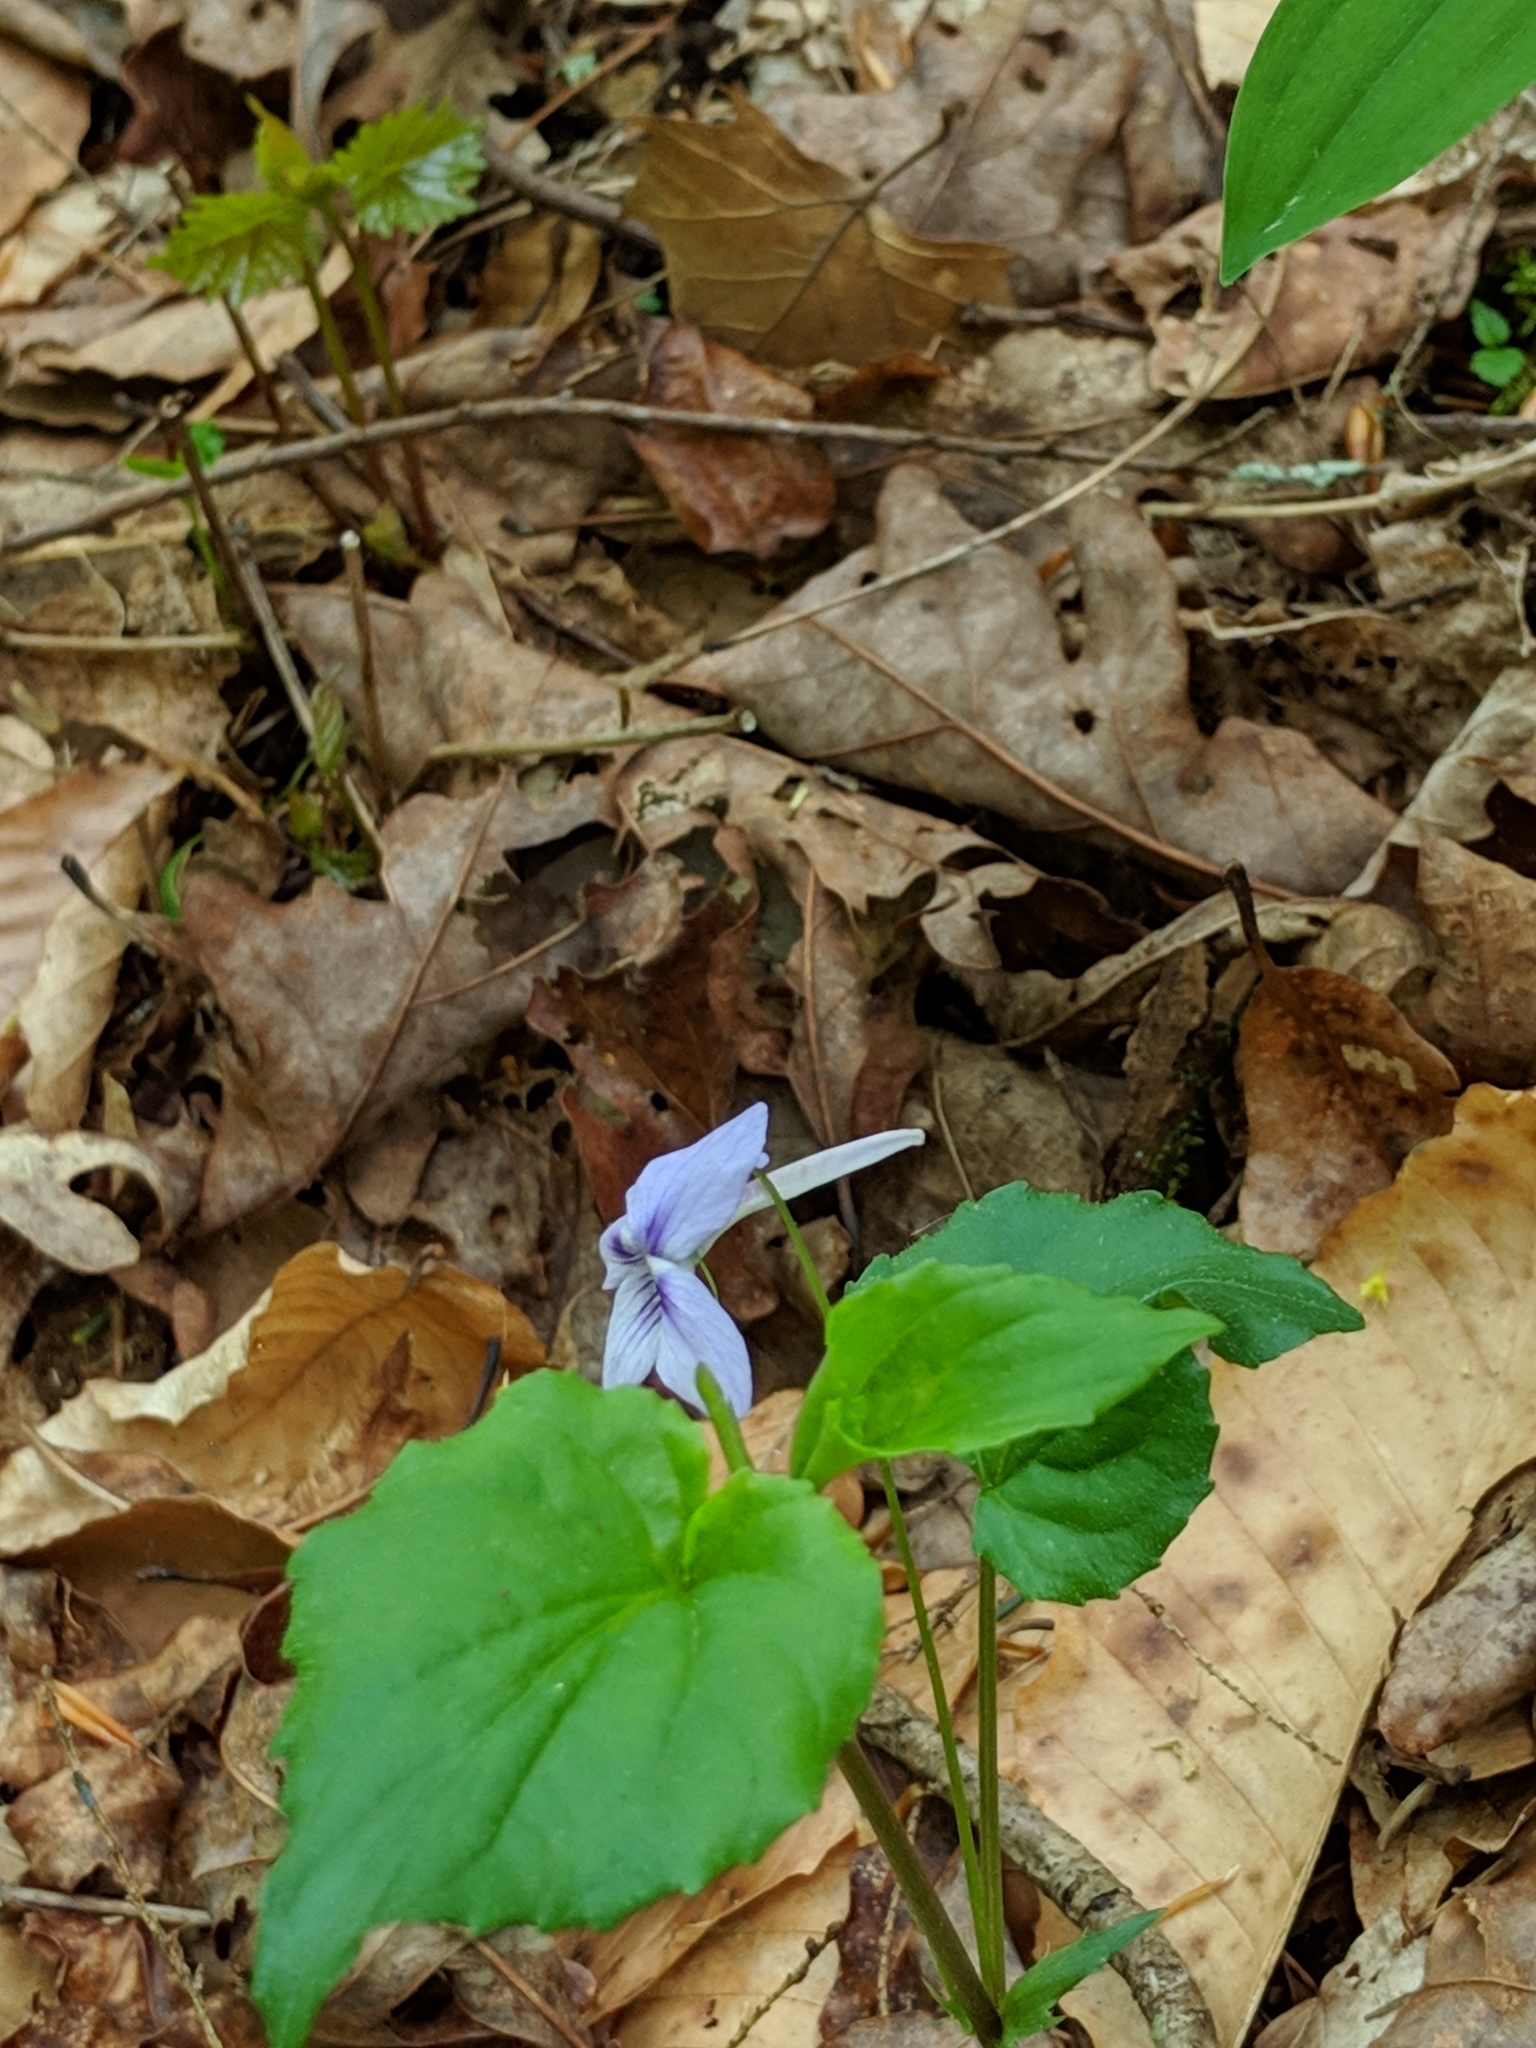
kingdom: Plantae
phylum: Tracheophyta
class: Magnoliopsida
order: Malpighiales
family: Violaceae
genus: Viola
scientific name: Viola rostrata
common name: Long-spur violet
